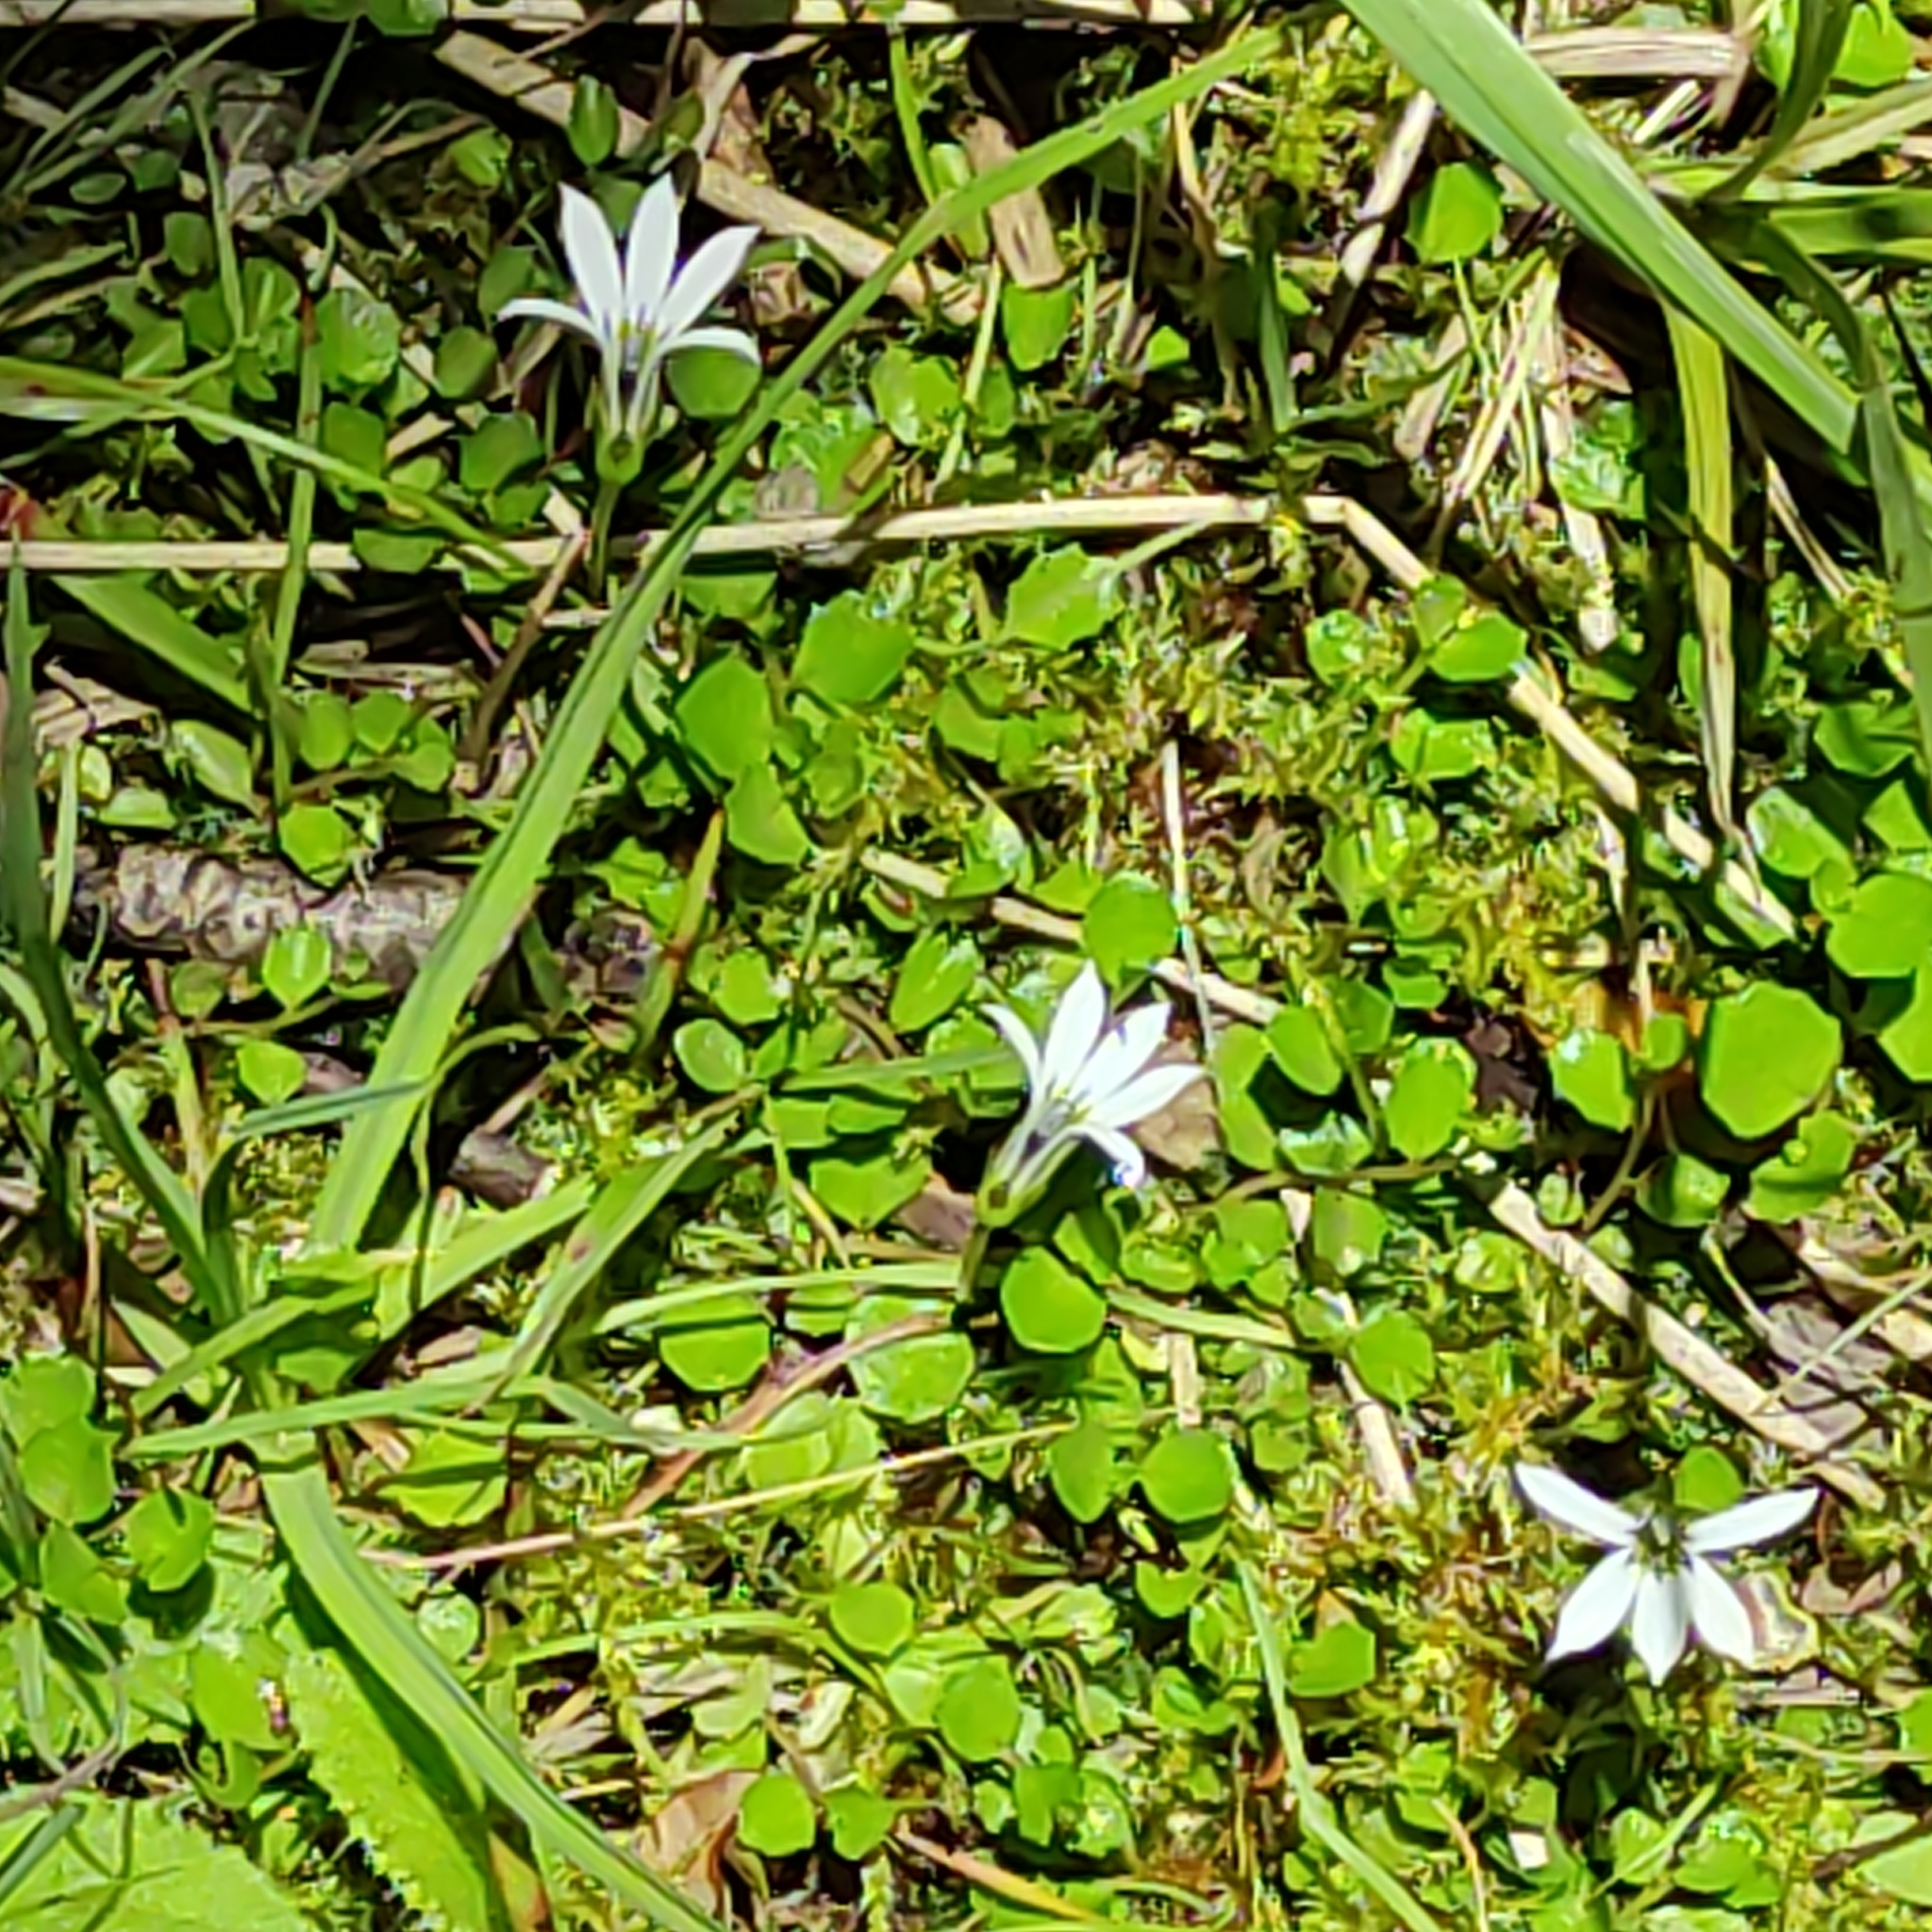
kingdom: Plantae
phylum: Tracheophyta
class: Magnoliopsida
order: Asterales
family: Campanulaceae
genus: Lobelia
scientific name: Lobelia angulata
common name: Lawn lobelia
